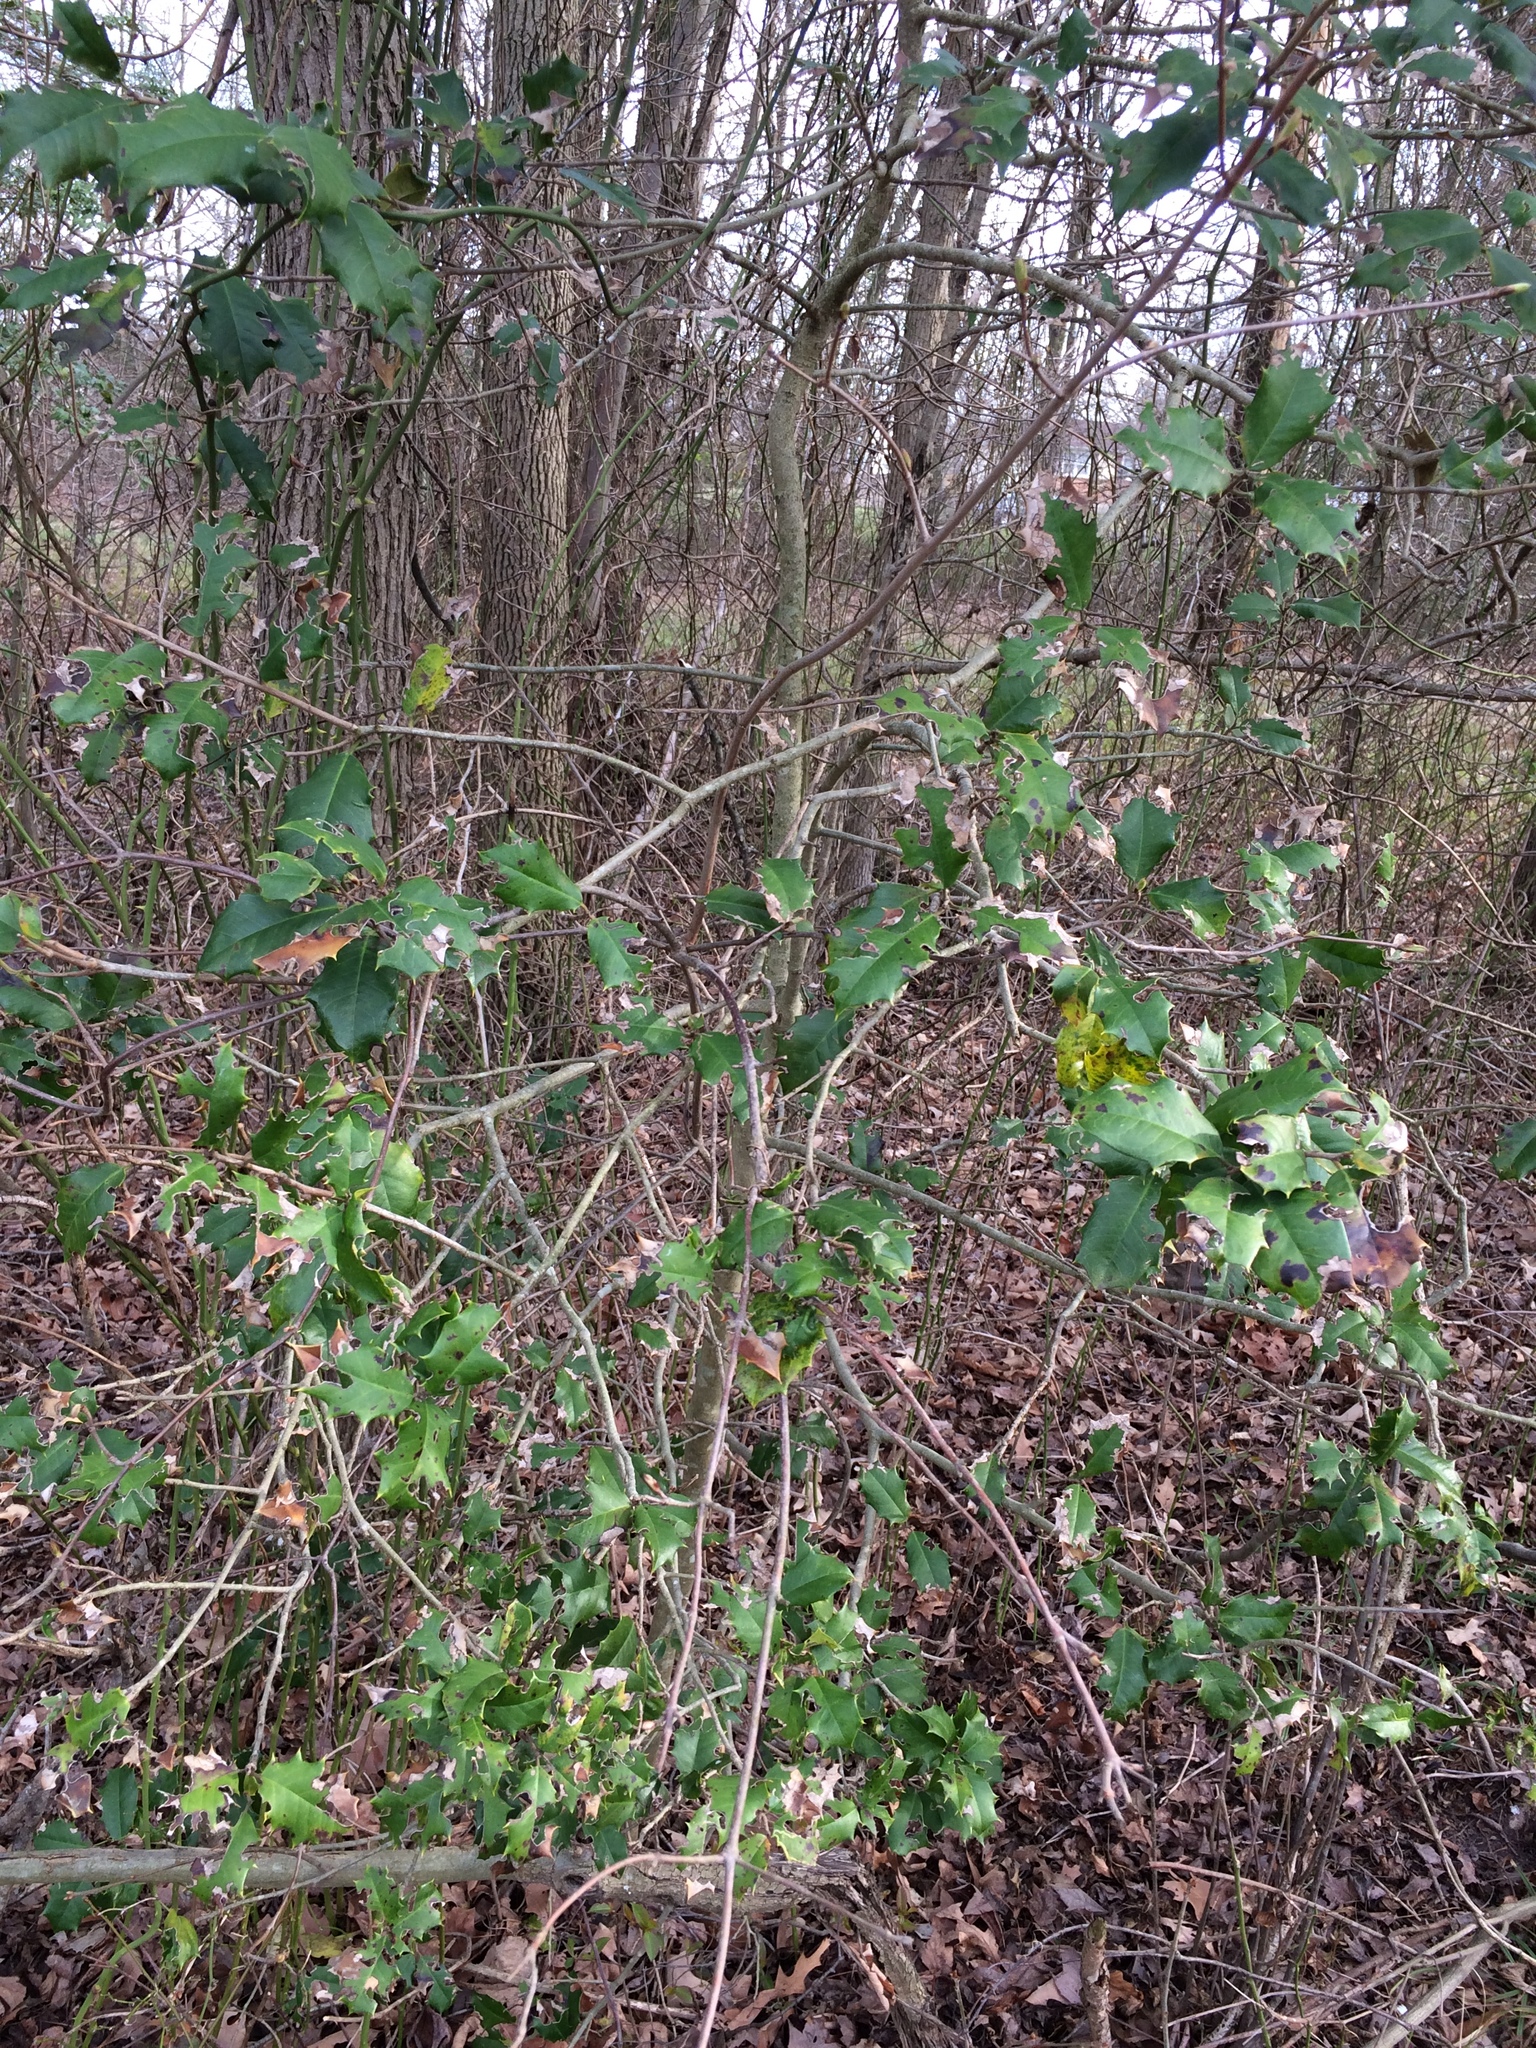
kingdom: Plantae
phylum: Tracheophyta
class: Magnoliopsida
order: Aquifoliales
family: Aquifoliaceae
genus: Ilex
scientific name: Ilex opaca
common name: American holly
